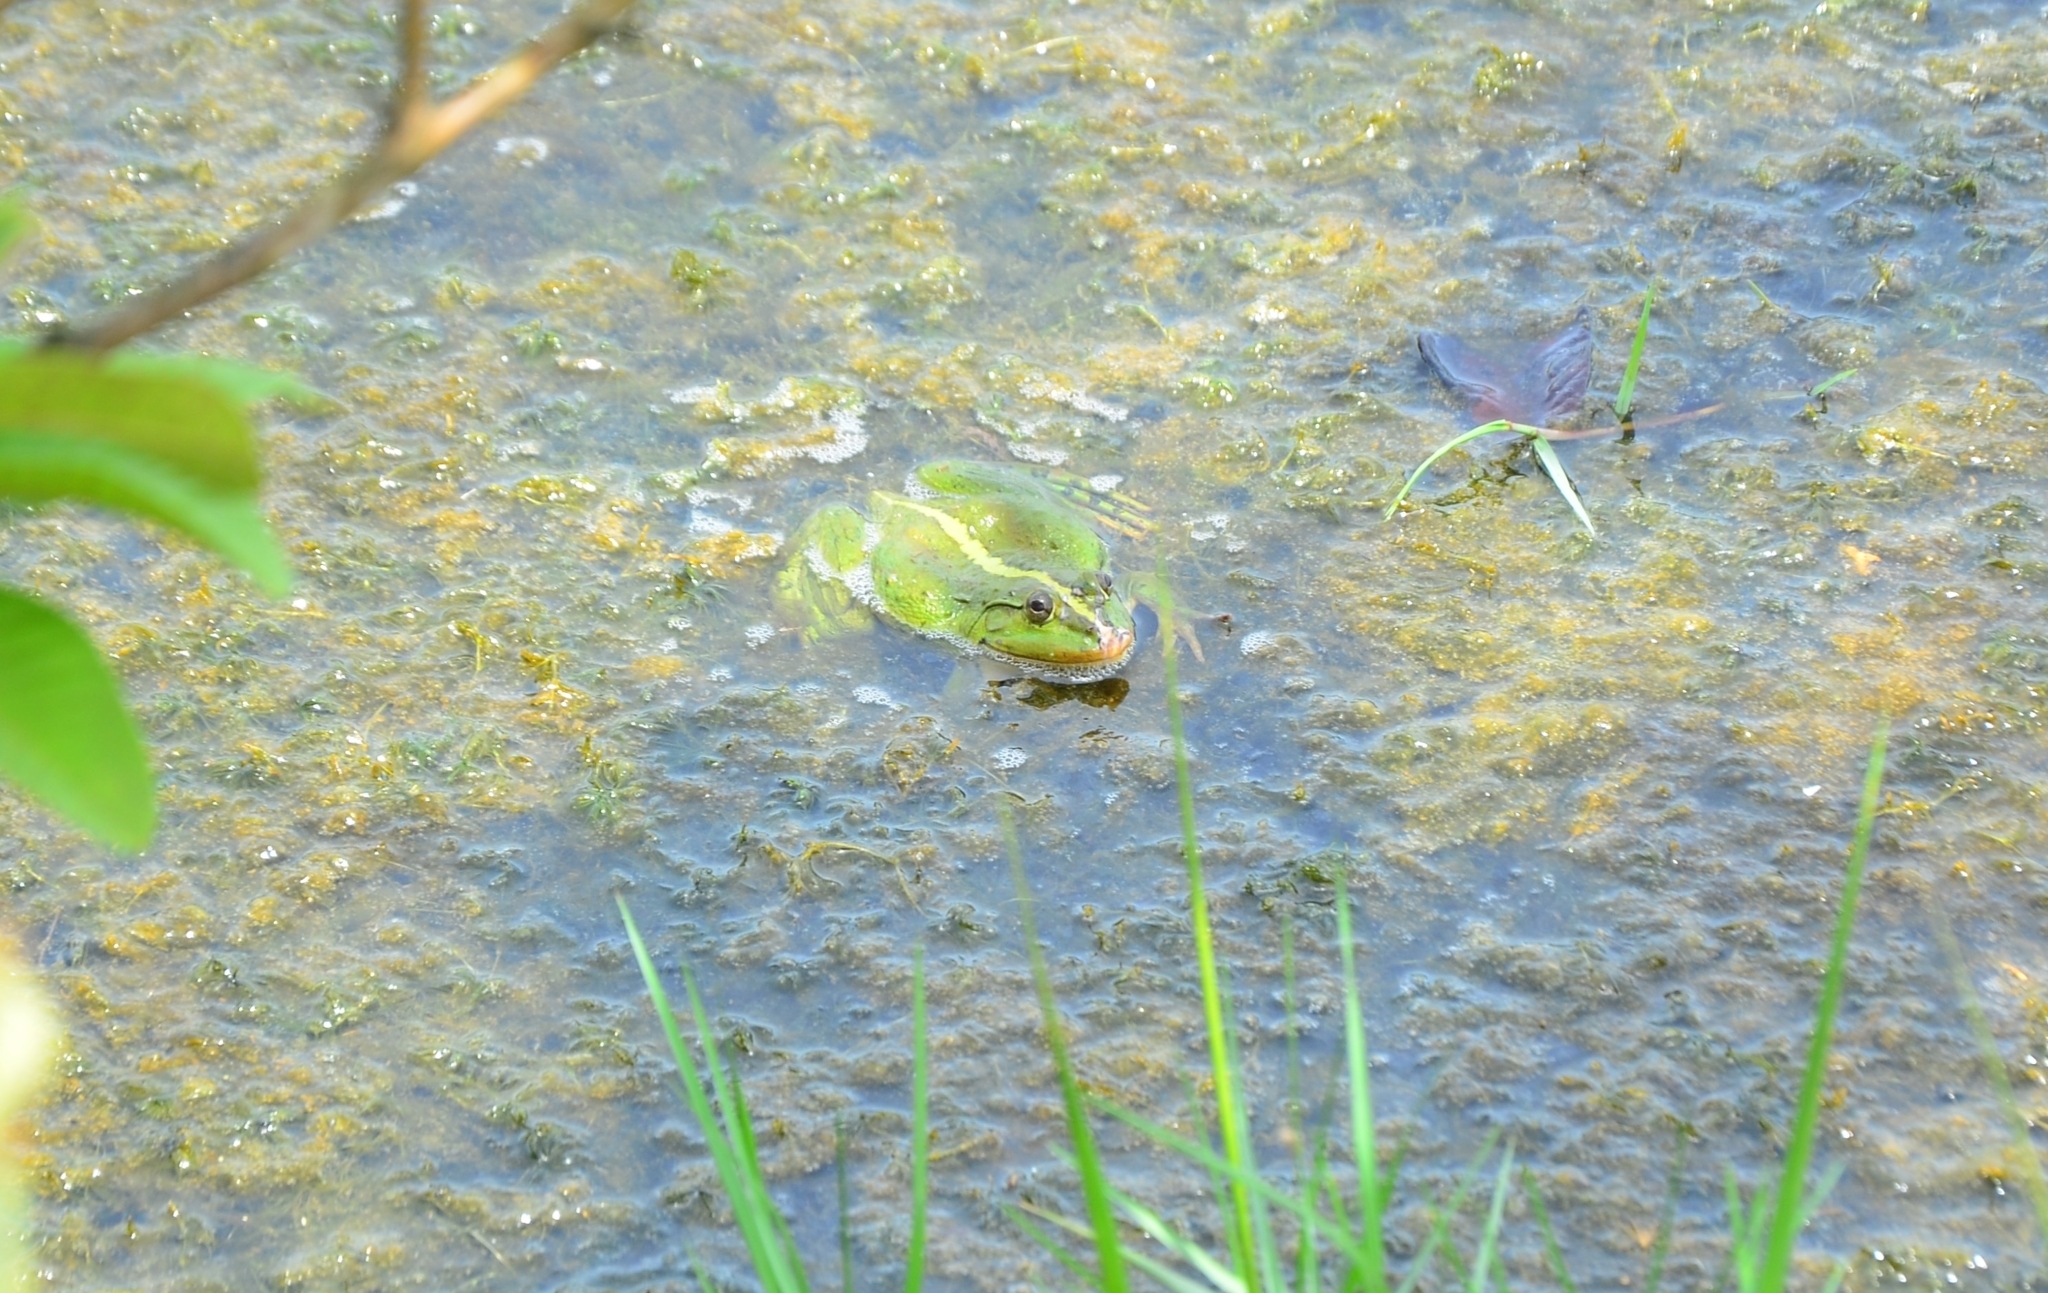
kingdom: Animalia
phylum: Chordata
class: Amphibia
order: Anura
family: Dicroglossidae
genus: Euphlyctis
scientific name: Euphlyctis hexadactylus
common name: Indian green frog
